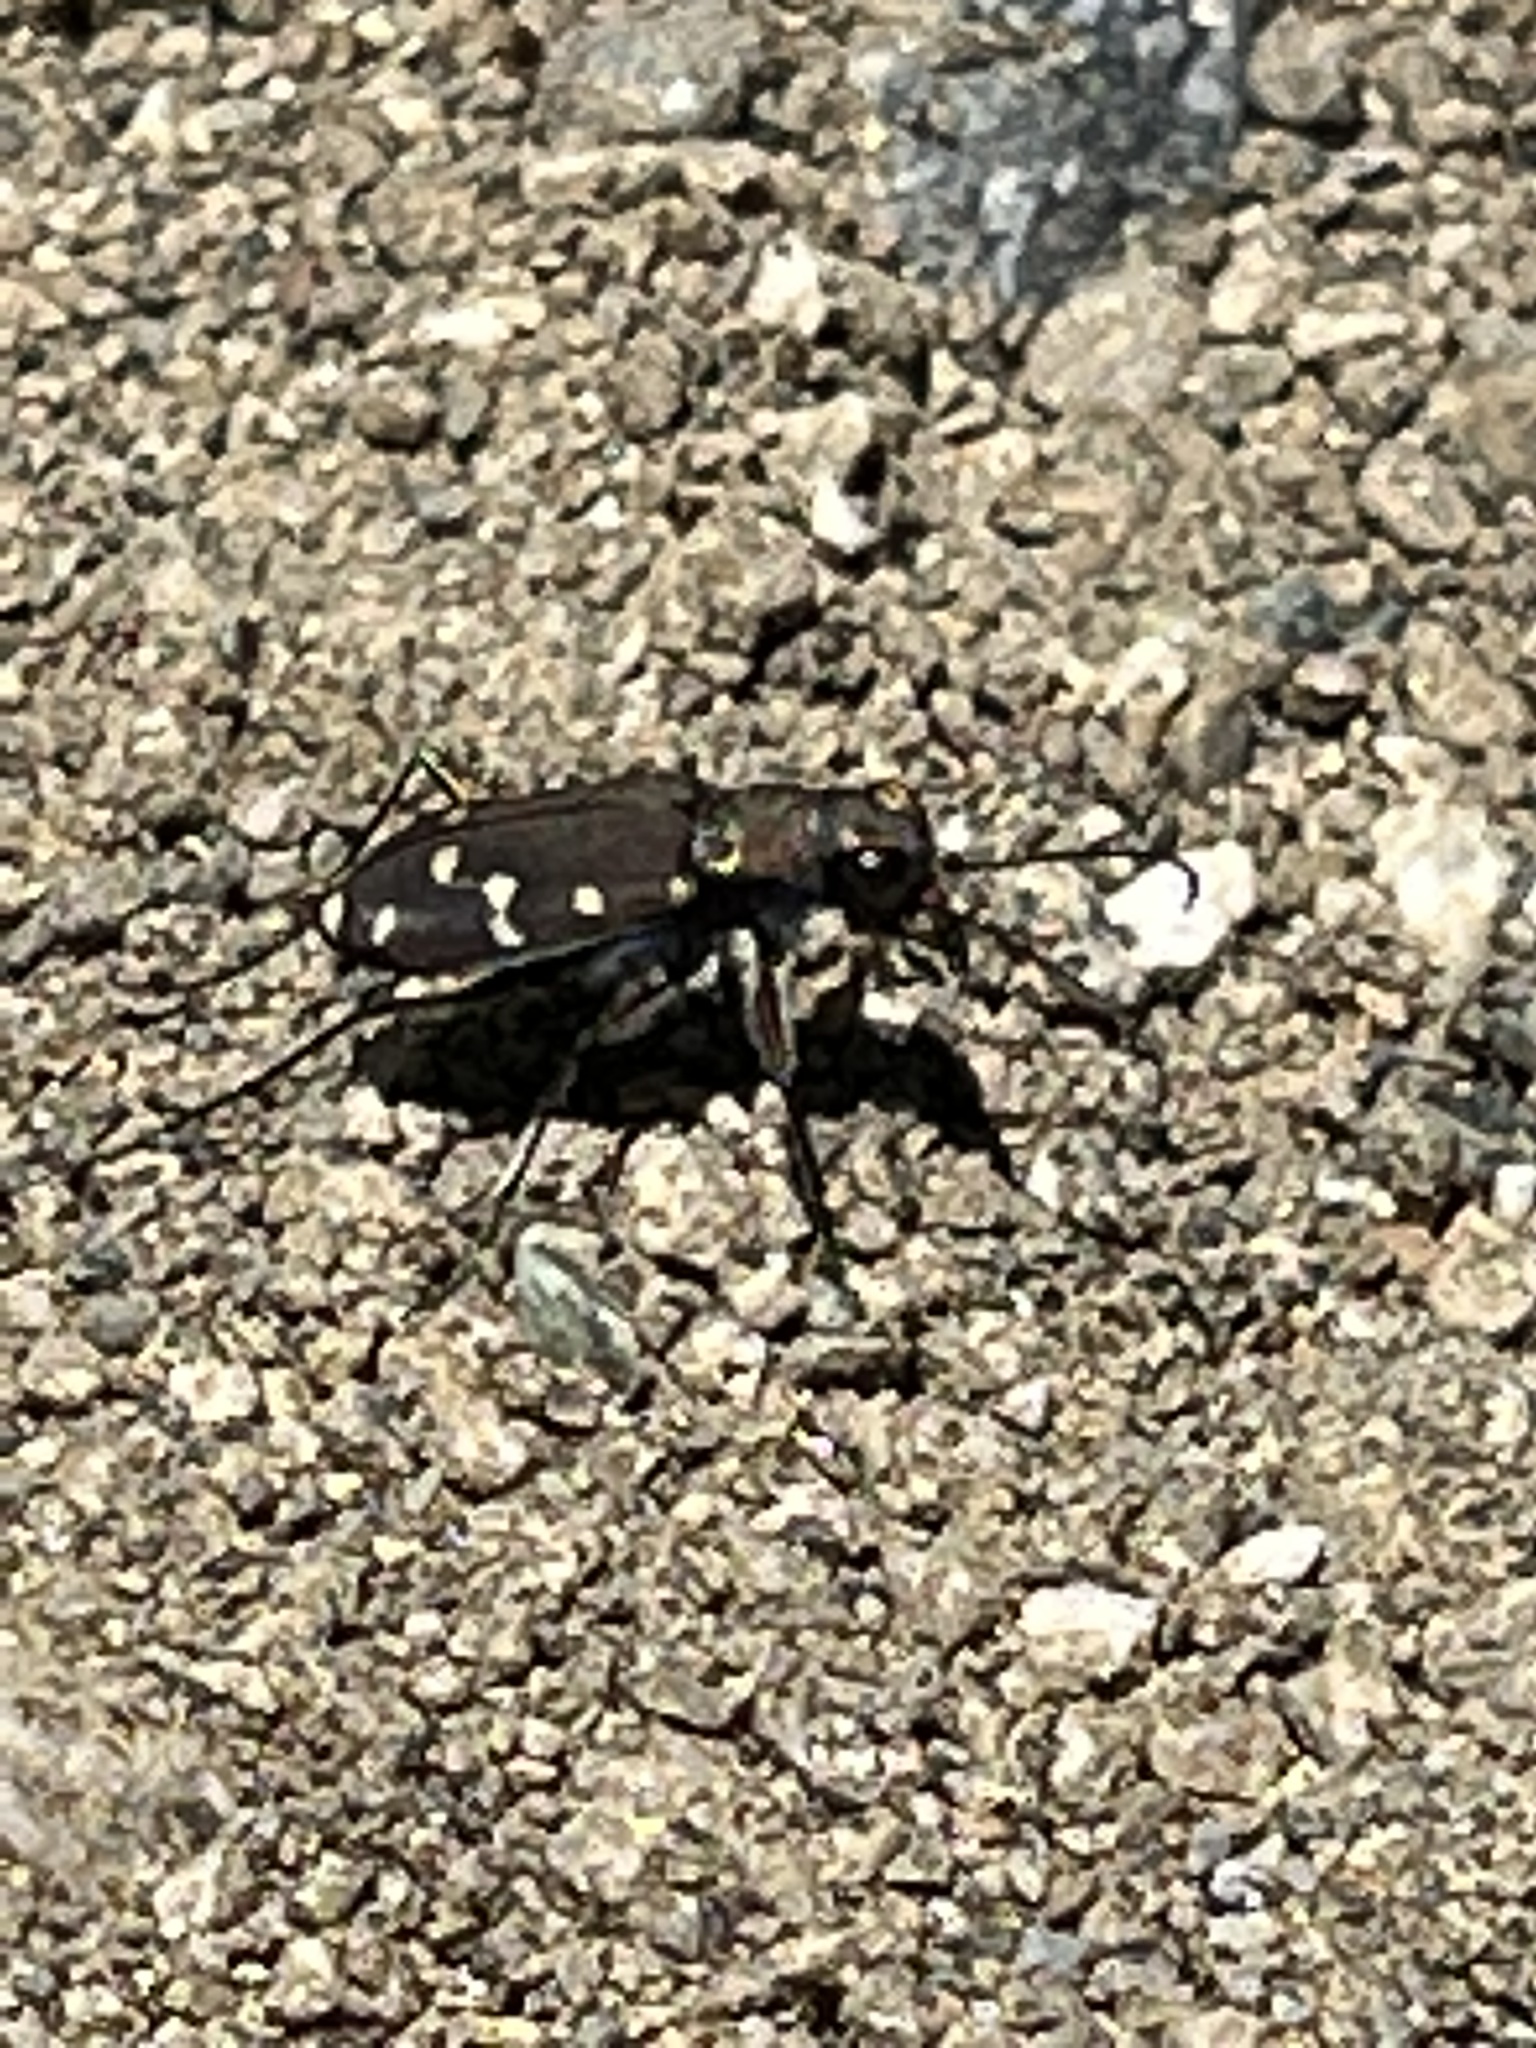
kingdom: Animalia
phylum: Arthropoda
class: Insecta
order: Coleoptera
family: Carabidae
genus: Cicindela
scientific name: Cicindela oregona
